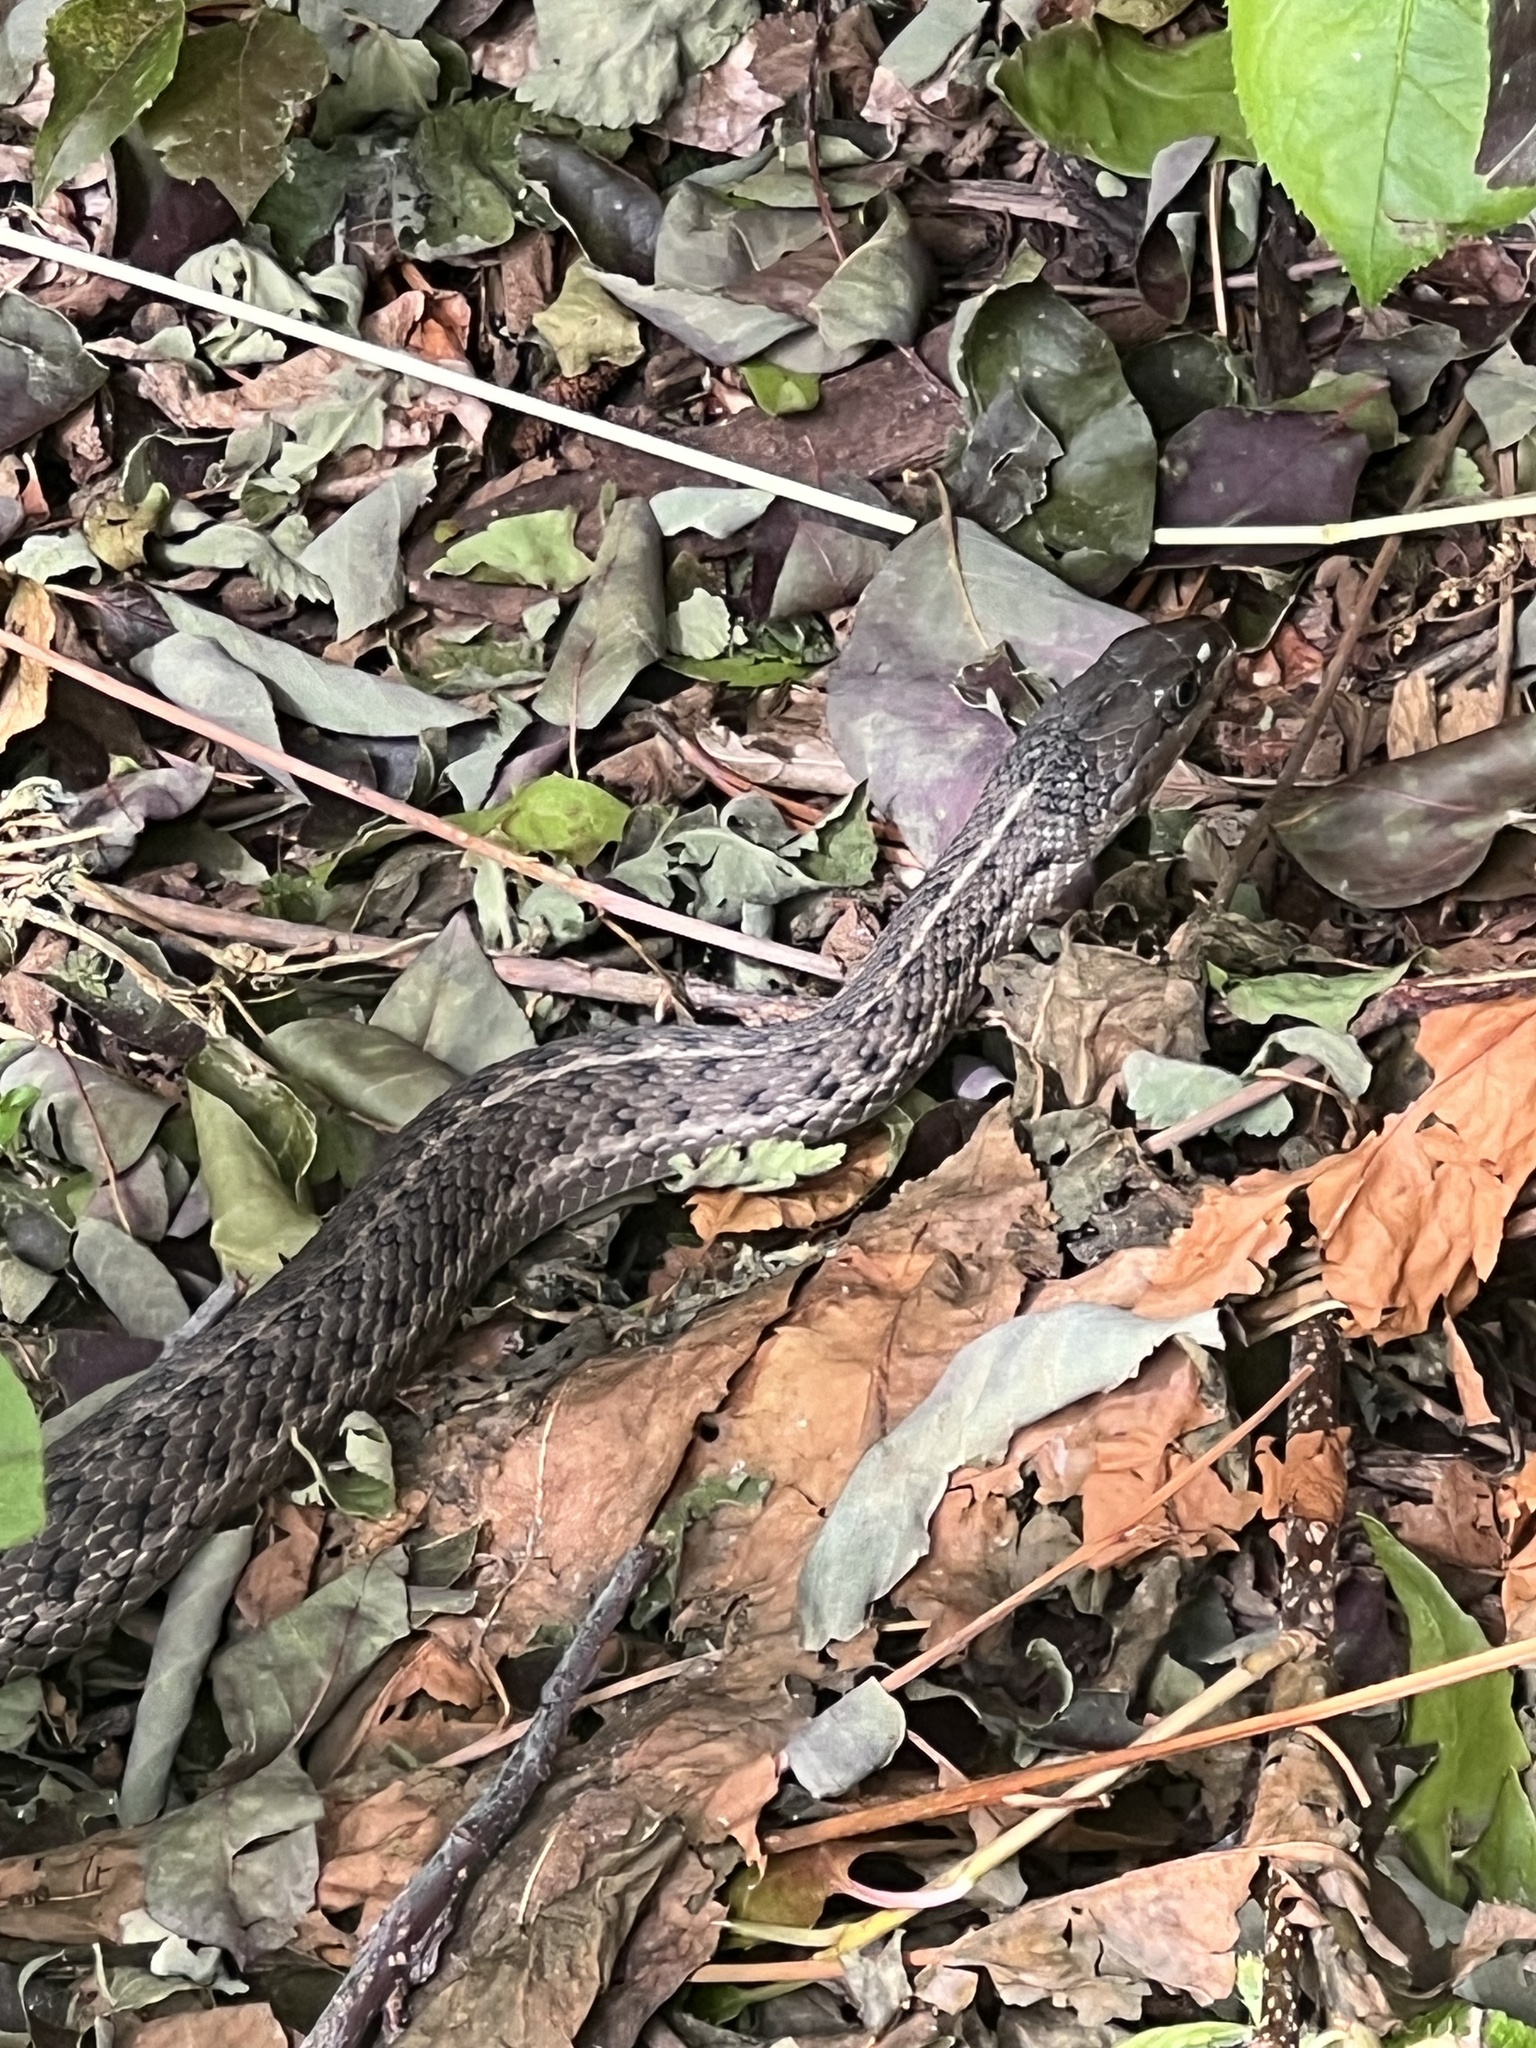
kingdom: Animalia
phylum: Chordata
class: Squamata
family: Colubridae
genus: Thamnophis
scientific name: Thamnophis elegans
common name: Western terrestrial garter snake
